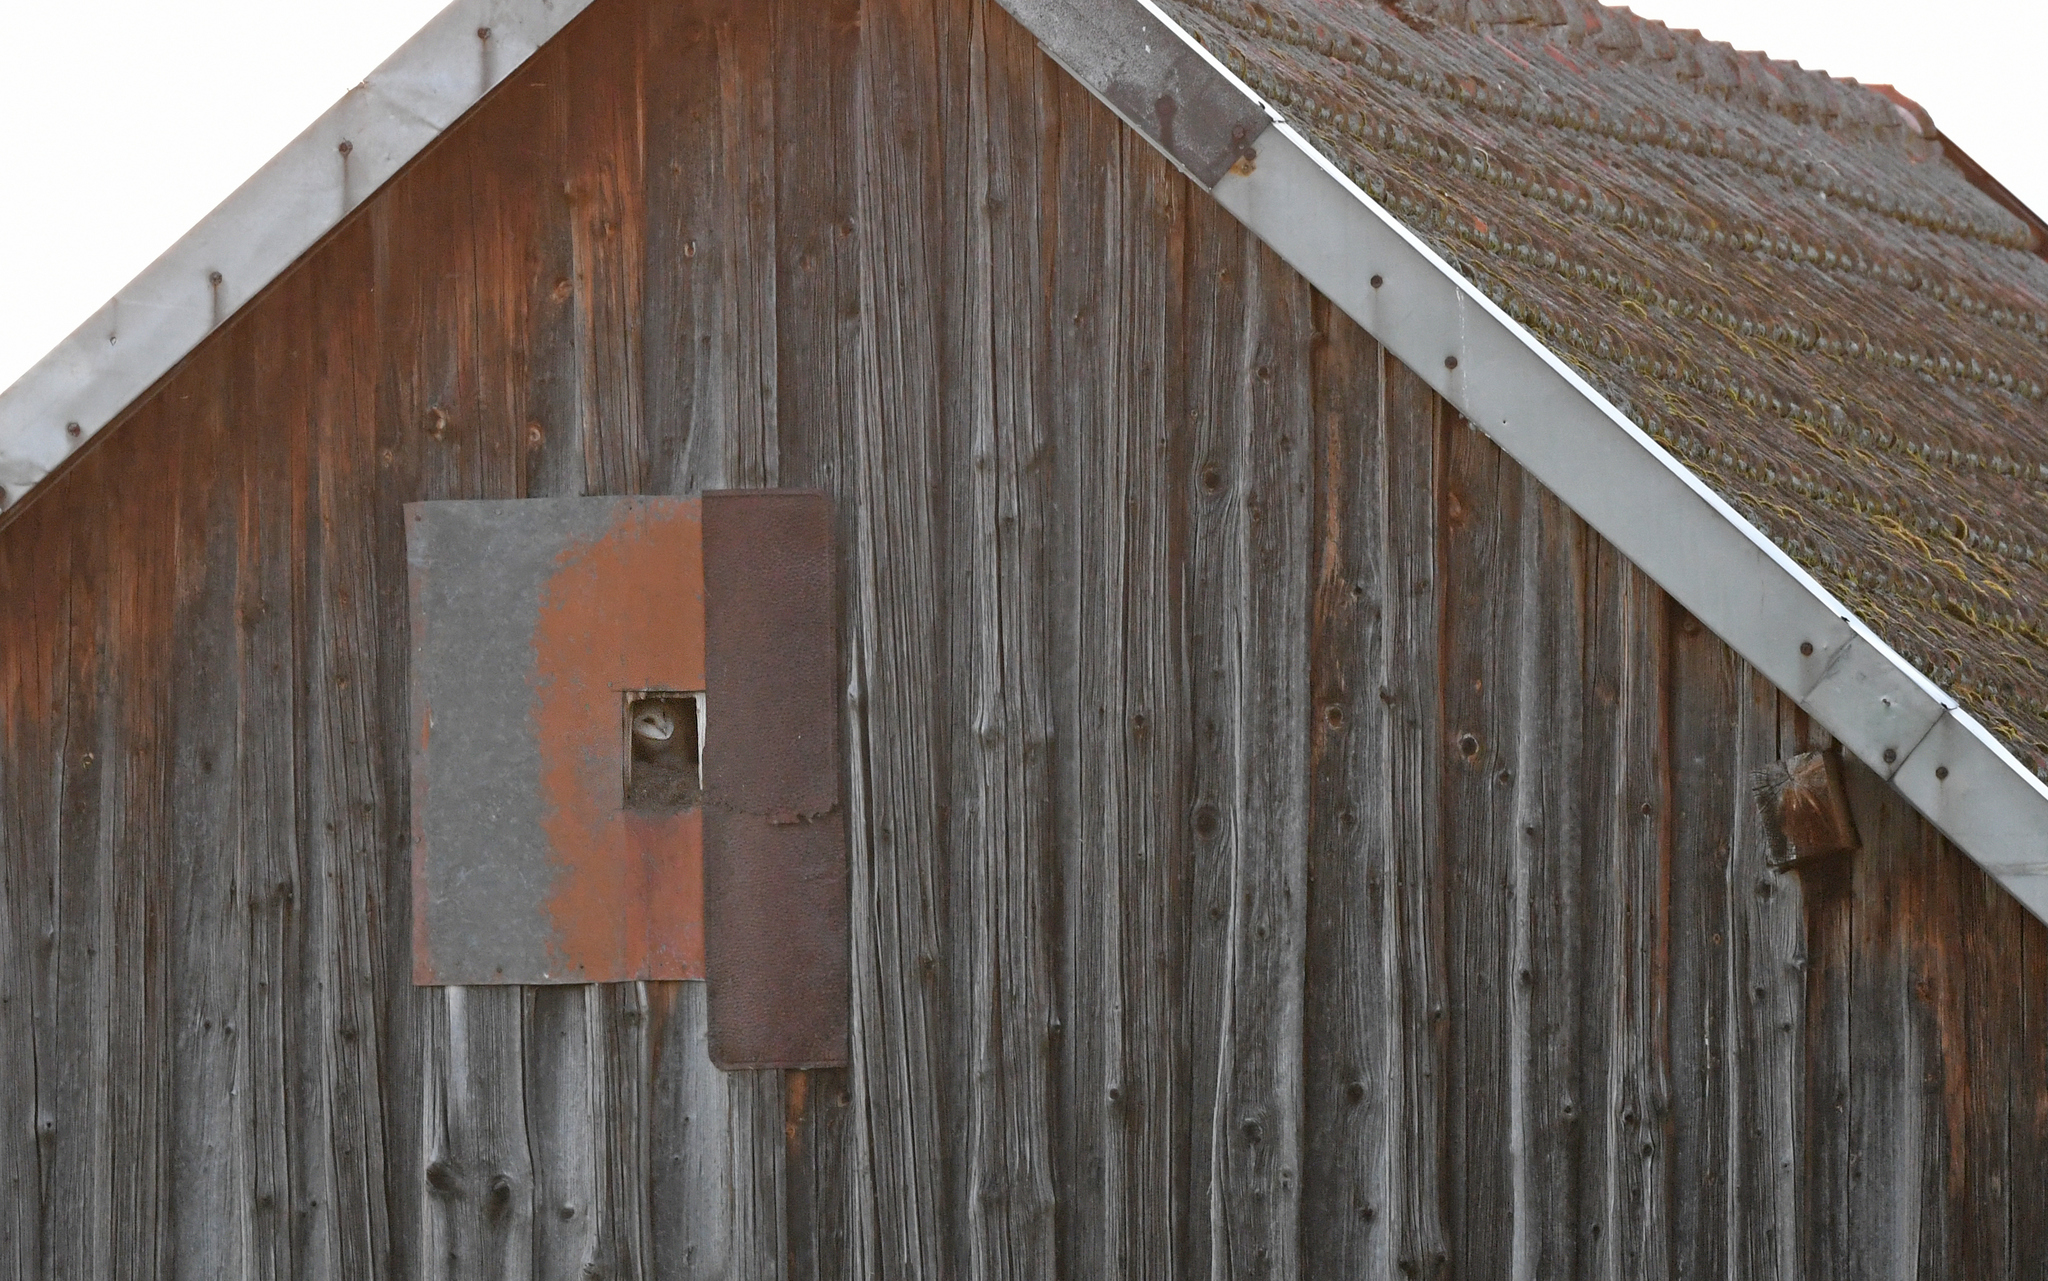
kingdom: Animalia
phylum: Chordata
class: Aves
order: Strigiformes
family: Tytonidae
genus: Tyto
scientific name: Tyto alba
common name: Barn owl
